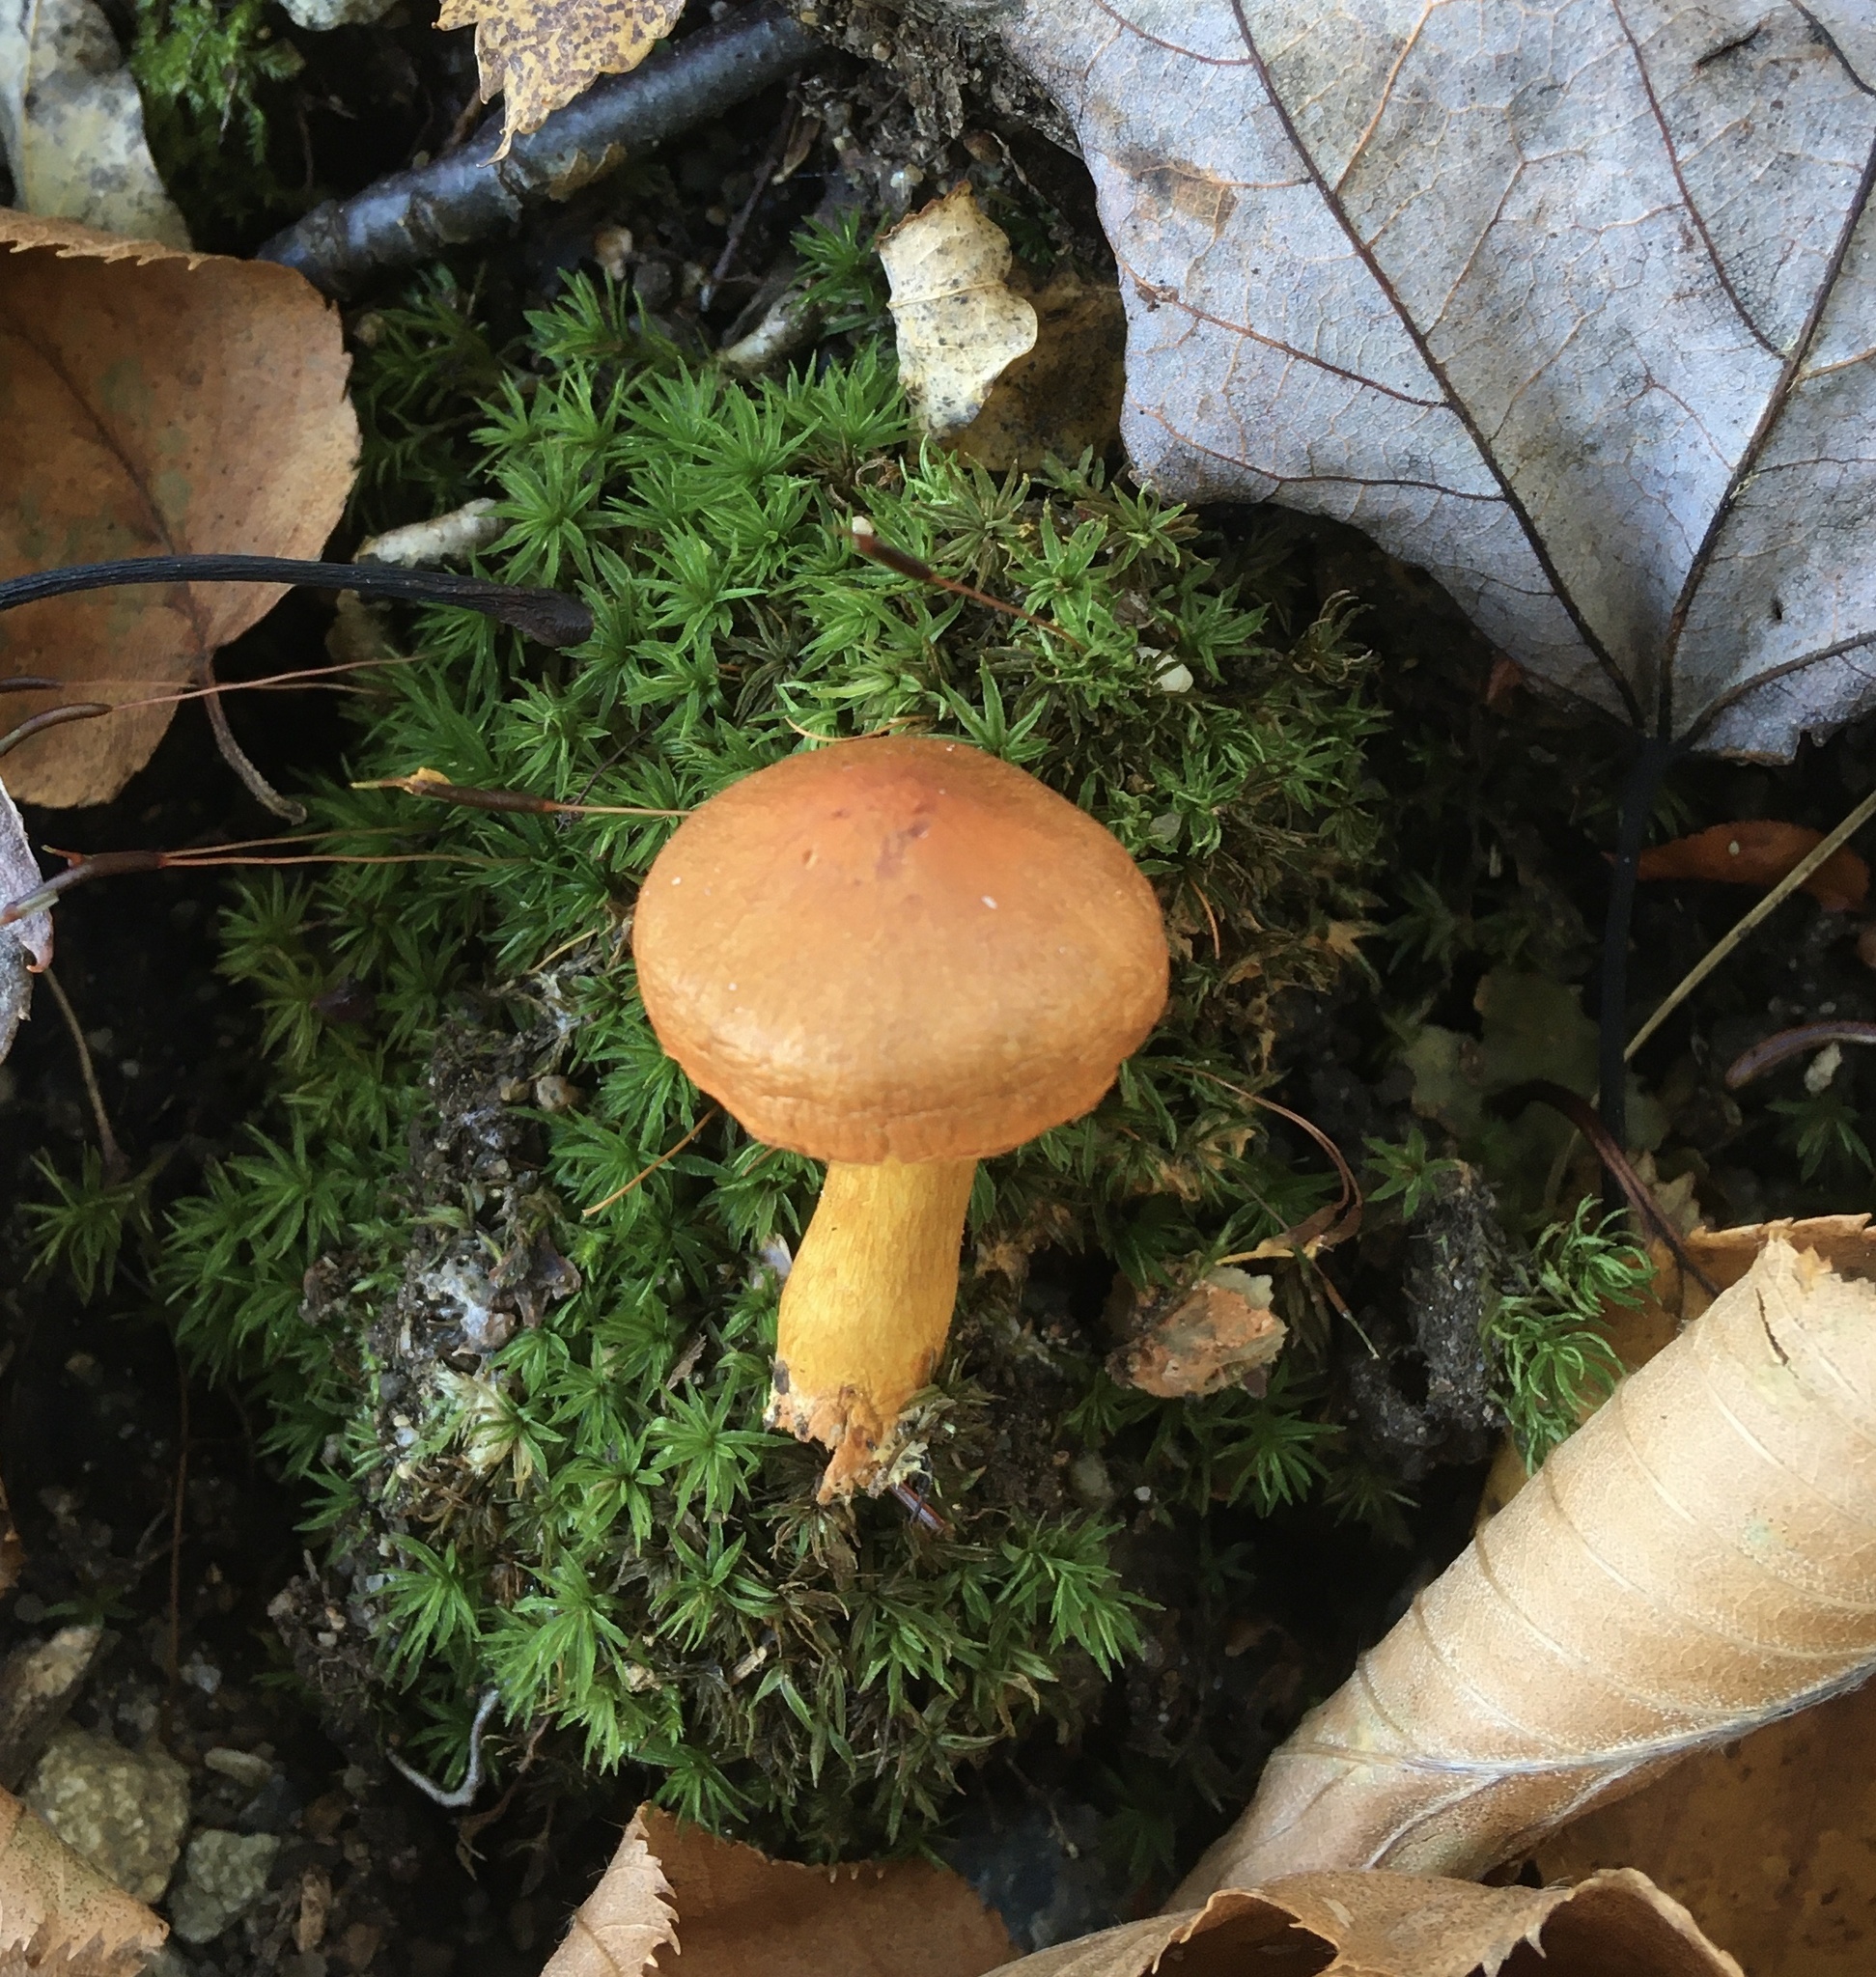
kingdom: Fungi
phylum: Basidiomycota
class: Agaricomycetes
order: Agaricales
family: Cortinariaceae
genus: Cortinarius
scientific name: Cortinarius semisanguineus
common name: Surprise webcap
